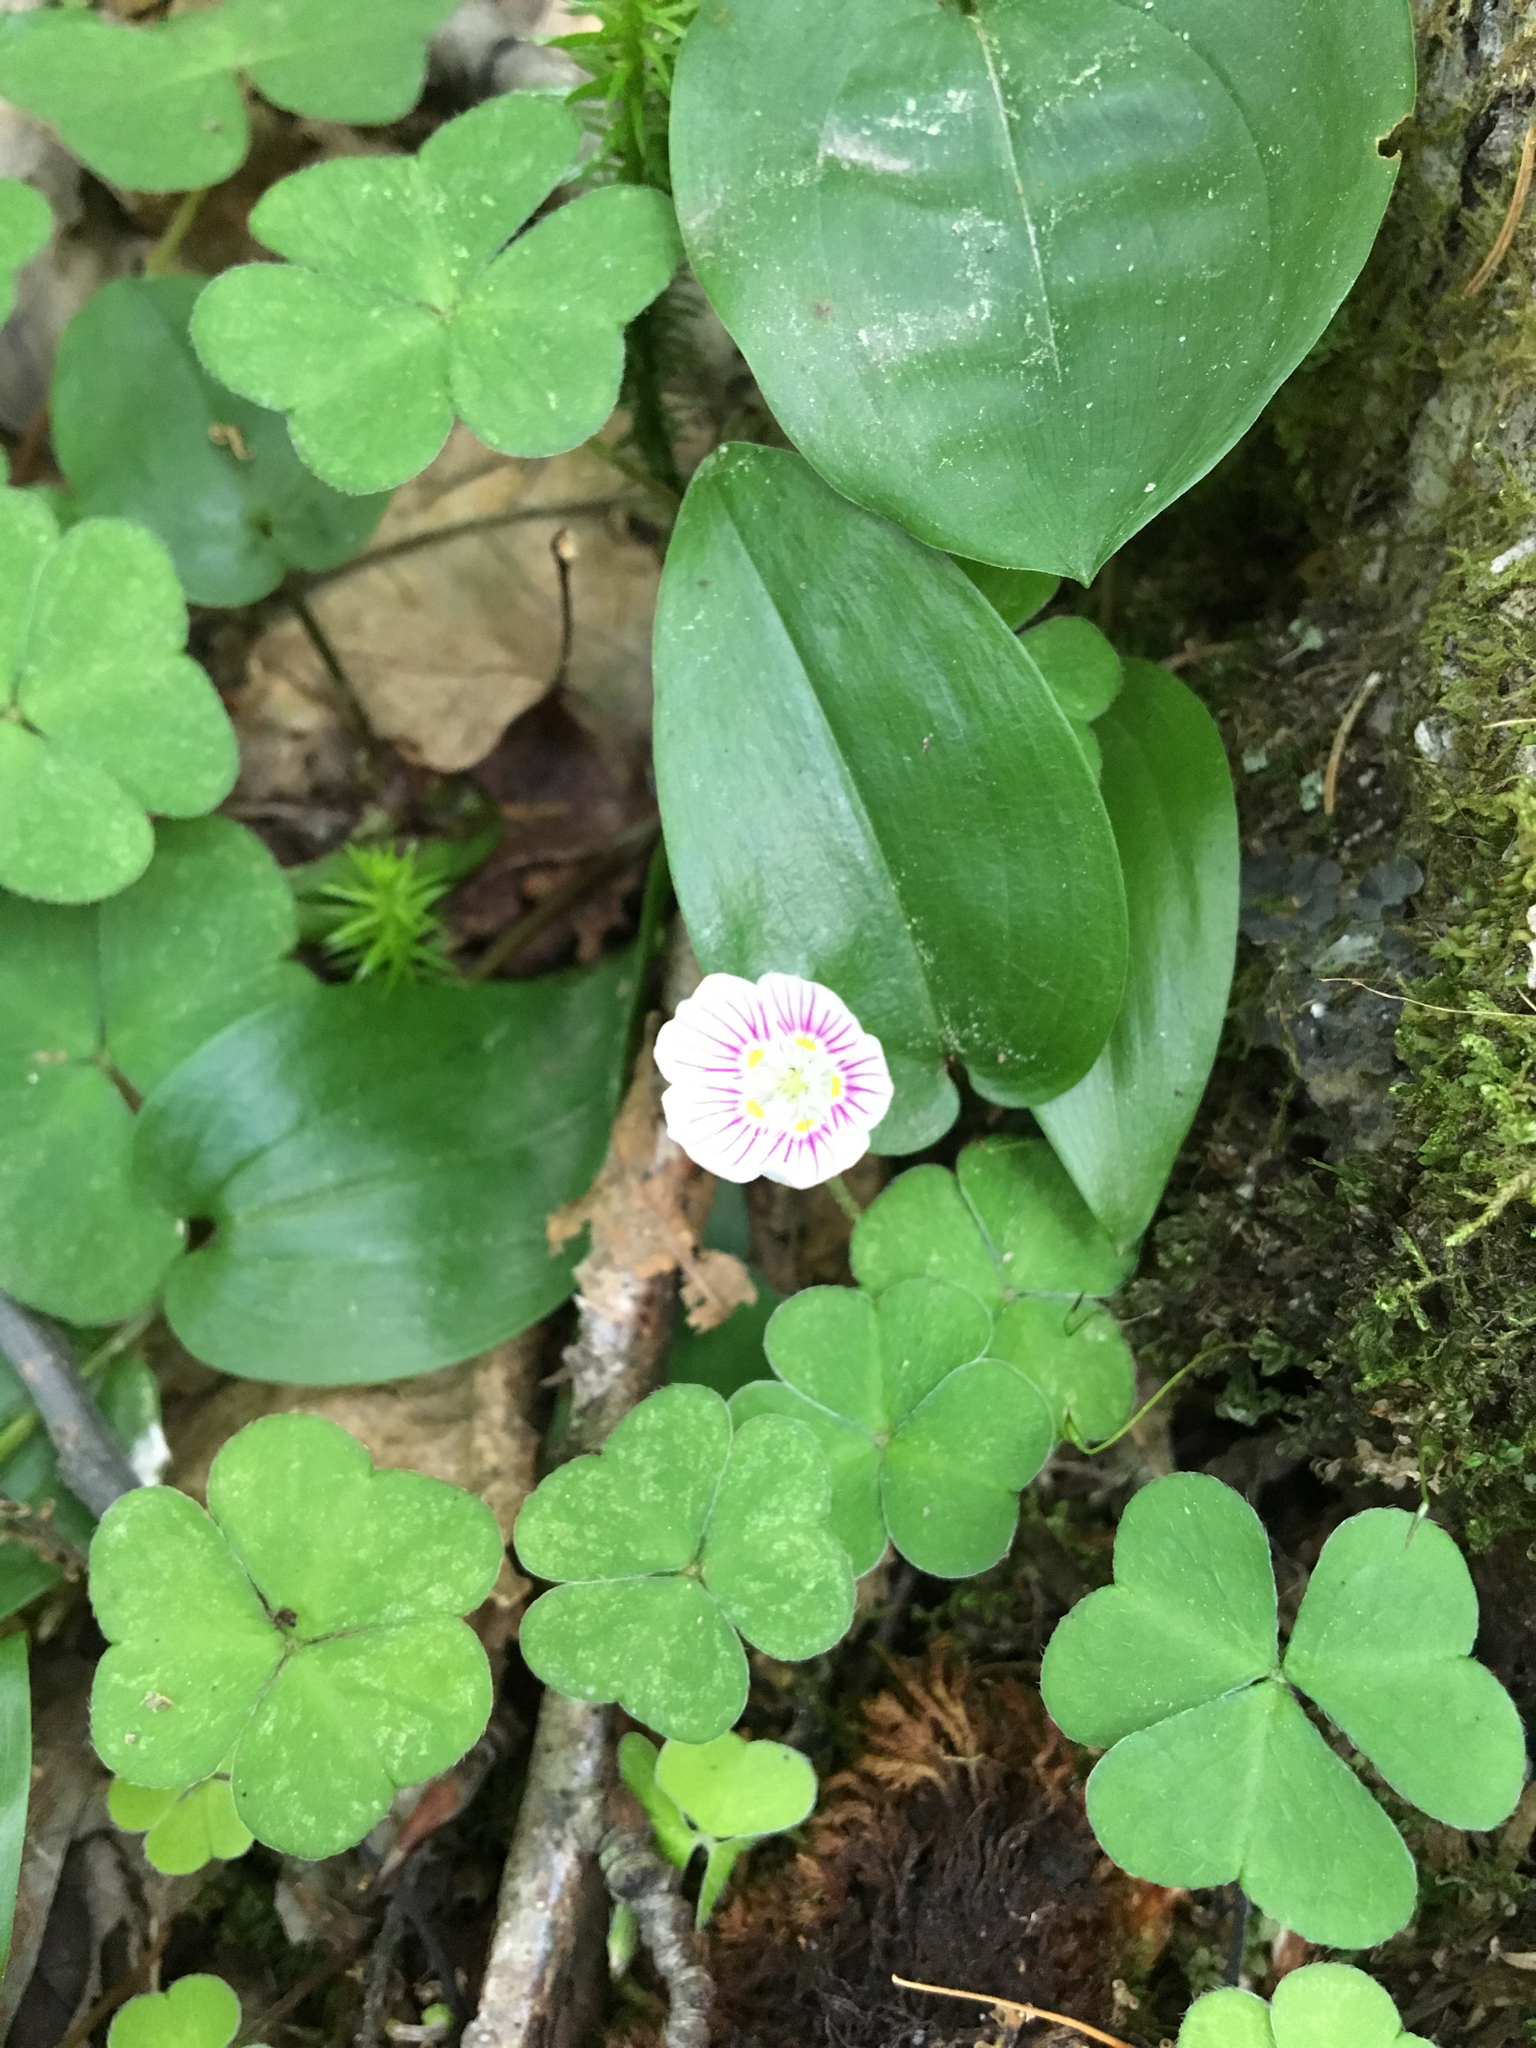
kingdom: Plantae
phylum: Tracheophyta
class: Magnoliopsida
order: Oxalidales
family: Oxalidaceae
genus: Oxalis
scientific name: Oxalis montana
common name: American wood-sorrel
